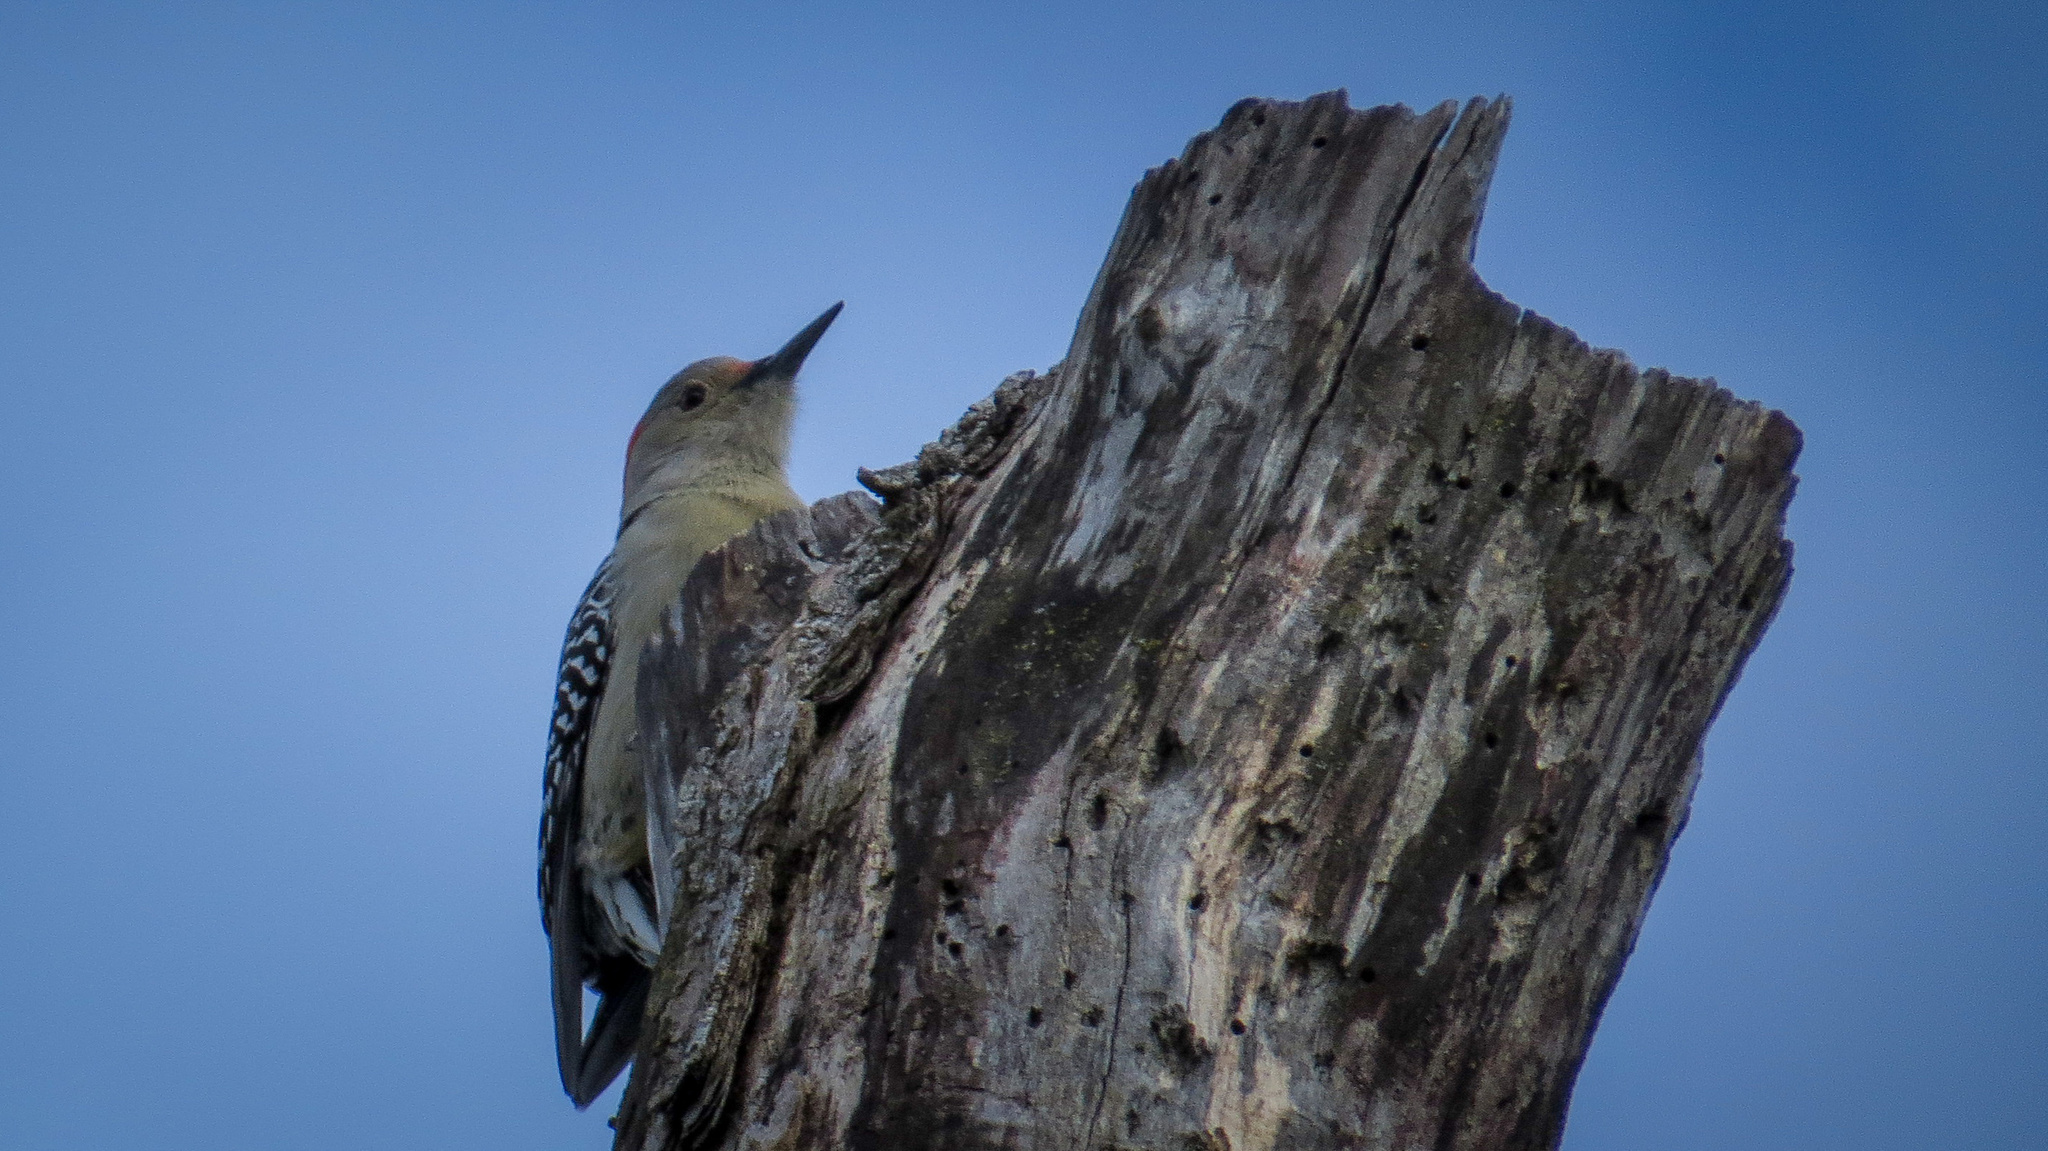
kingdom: Animalia
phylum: Chordata
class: Aves
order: Piciformes
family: Picidae
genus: Melanerpes
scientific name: Melanerpes carolinus
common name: Red-bellied woodpecker
